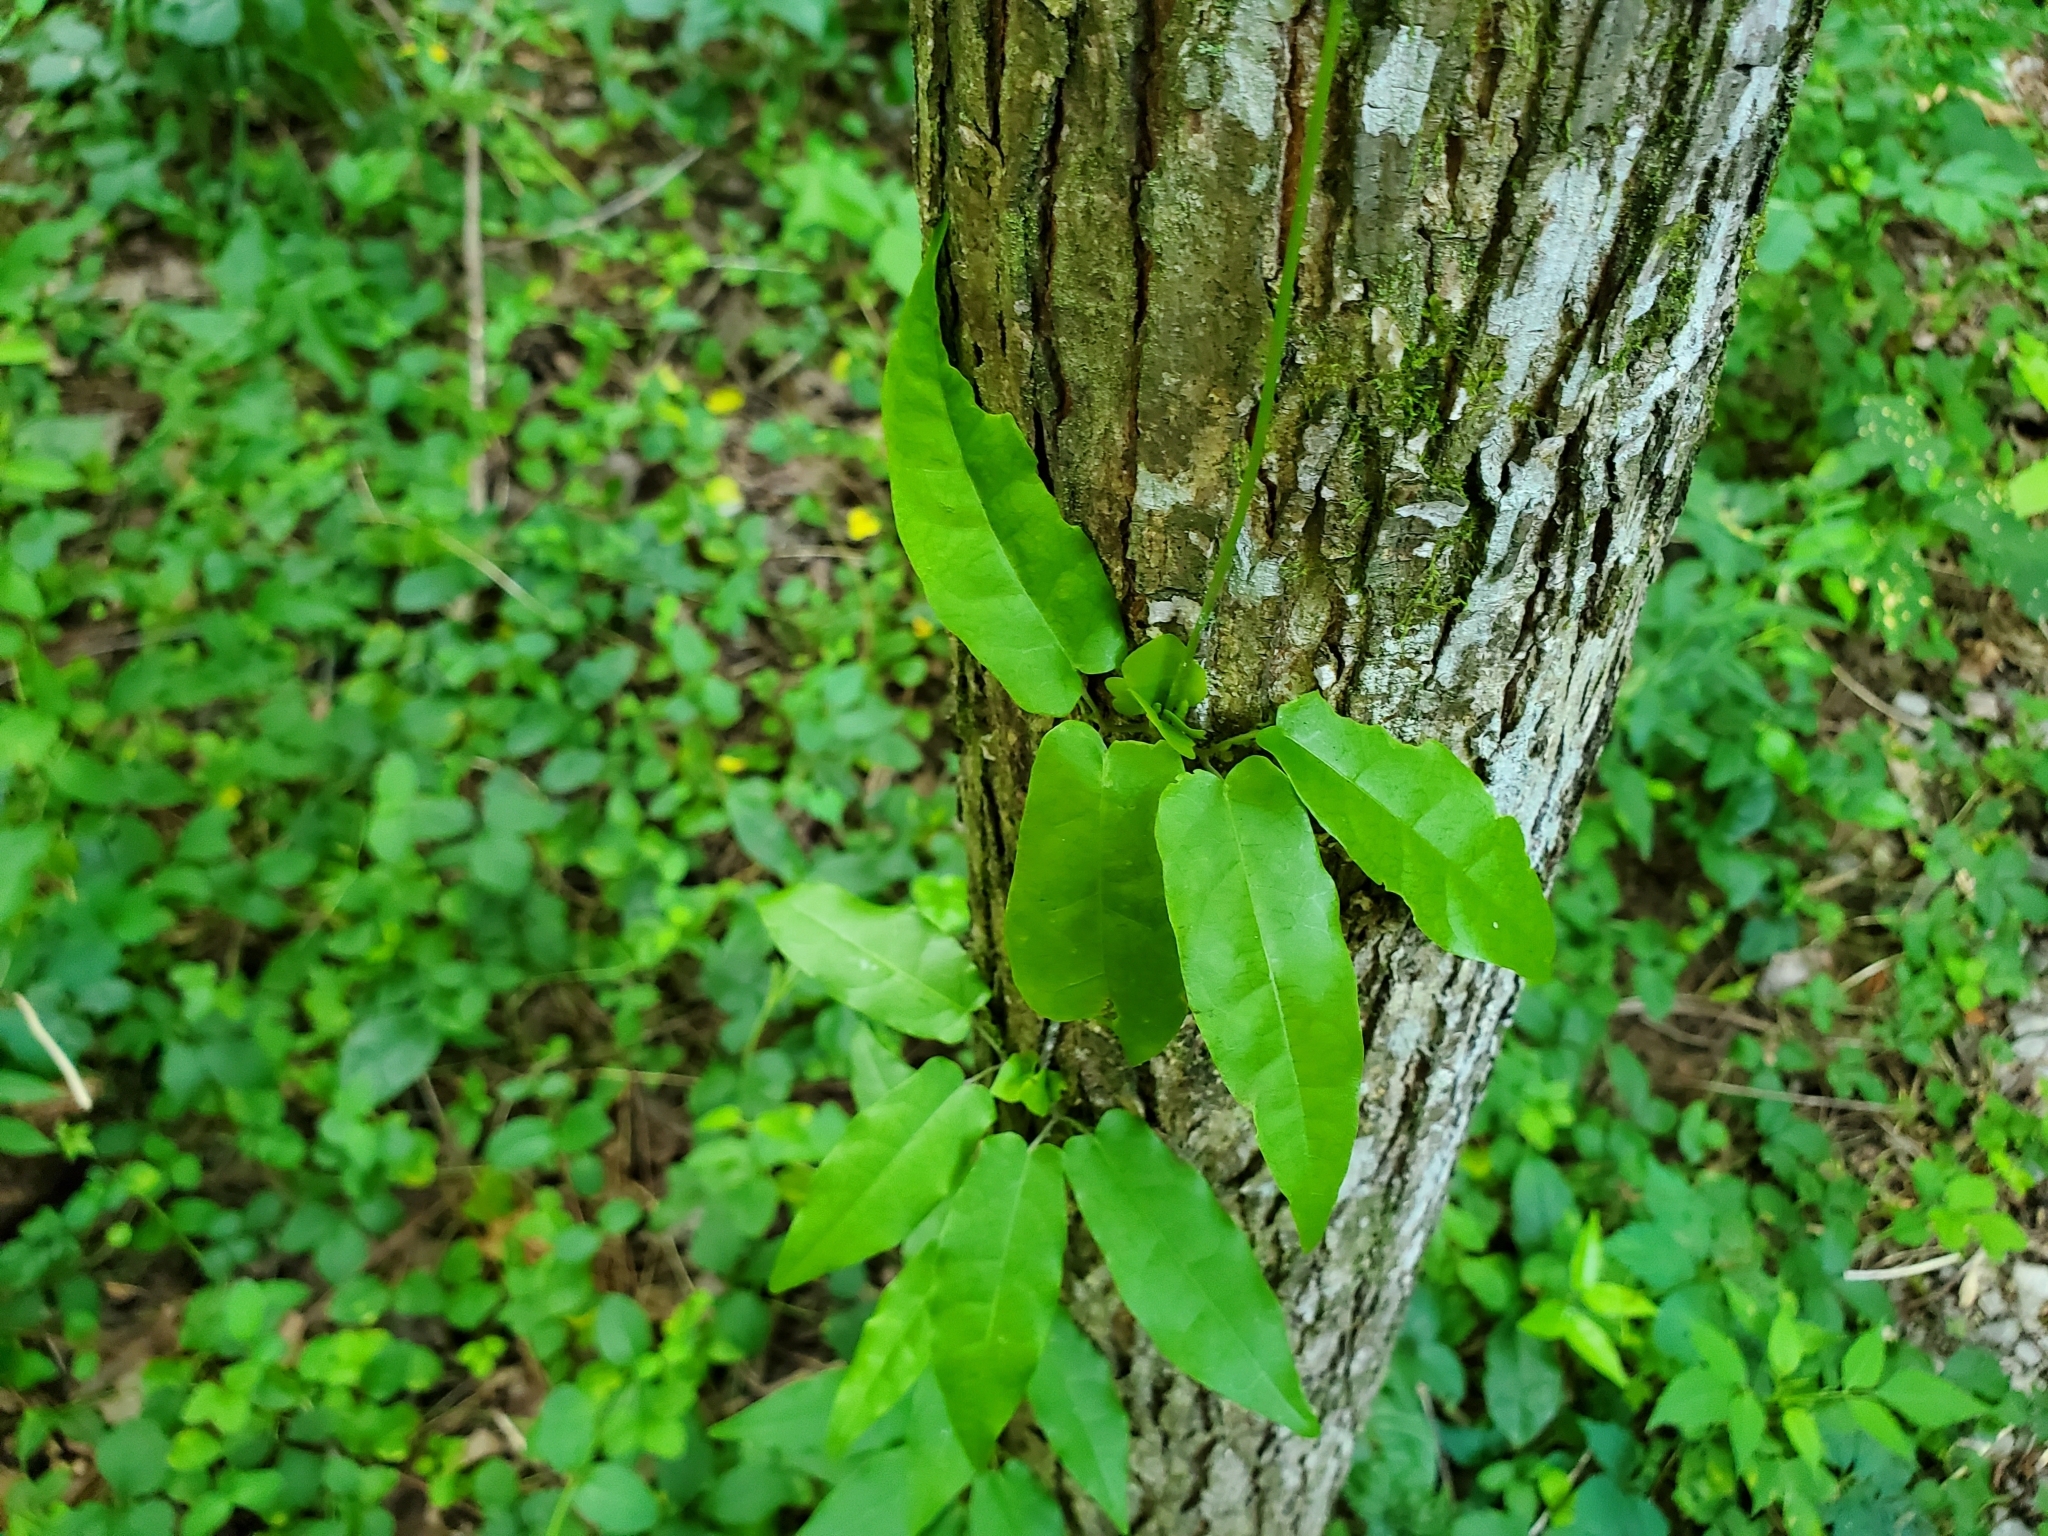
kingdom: Plantae
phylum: Tracheophyta
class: Magnoliopsida
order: Lamiales
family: Bignoniaceae
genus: Bignonia
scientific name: Bignonia capreolata
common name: Crossvine
